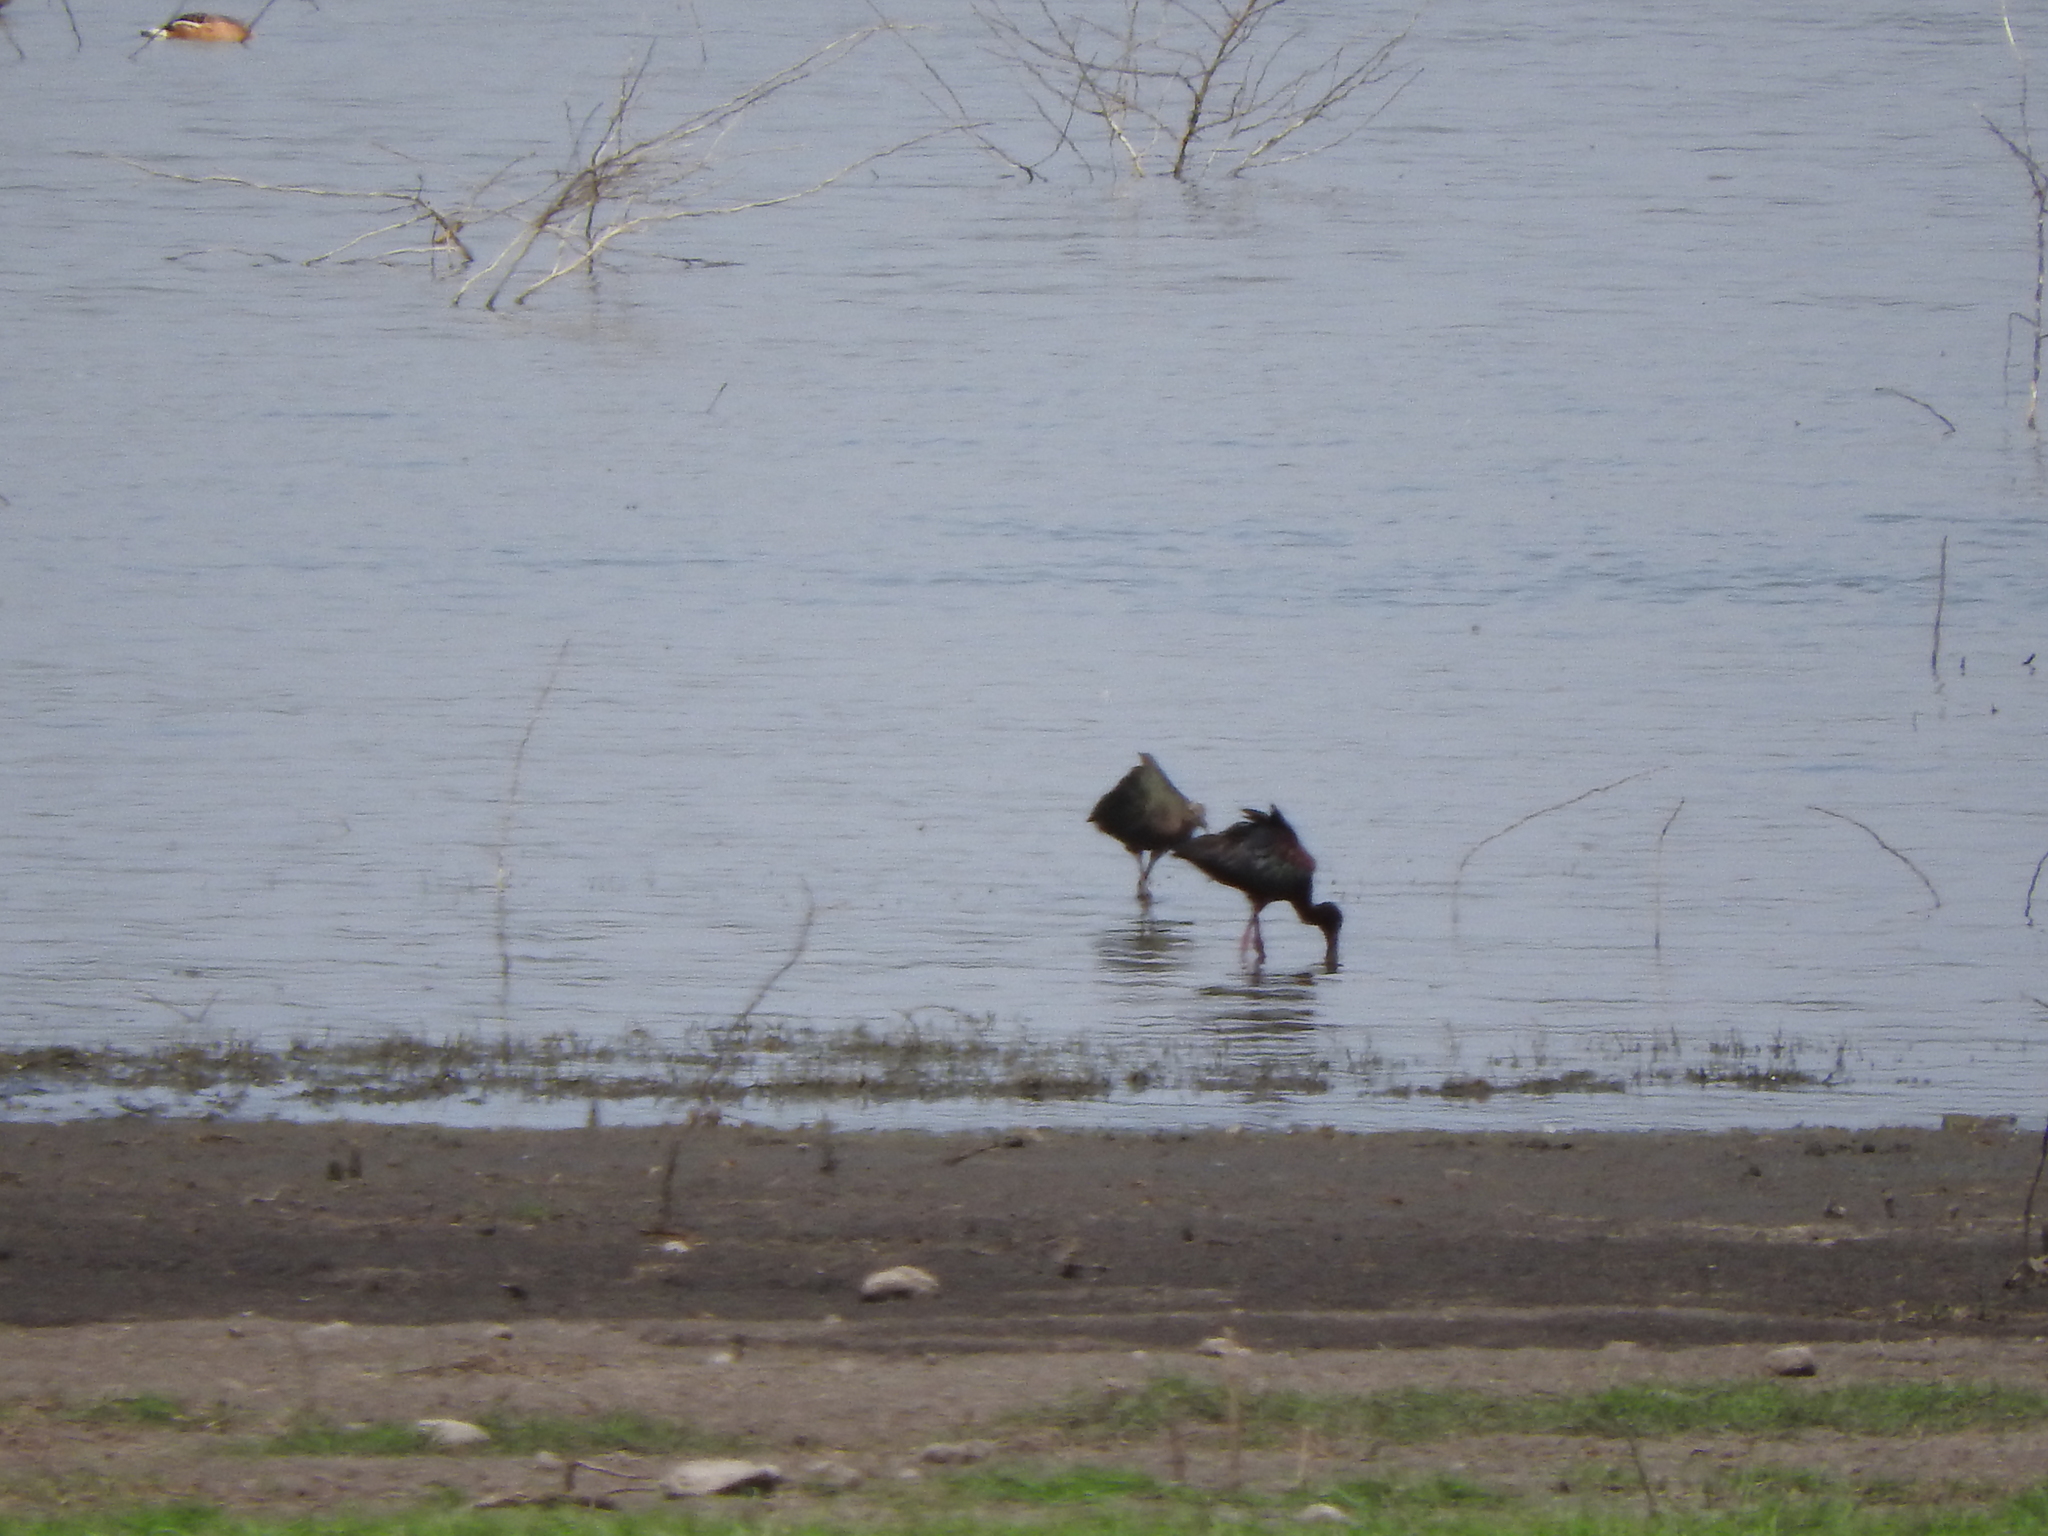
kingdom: Animalia
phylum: Chordata
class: Aves
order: Pelecaniformes
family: Threskiornithidae
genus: Plegadis
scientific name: Plegadis chihi
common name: White-faced ibis
